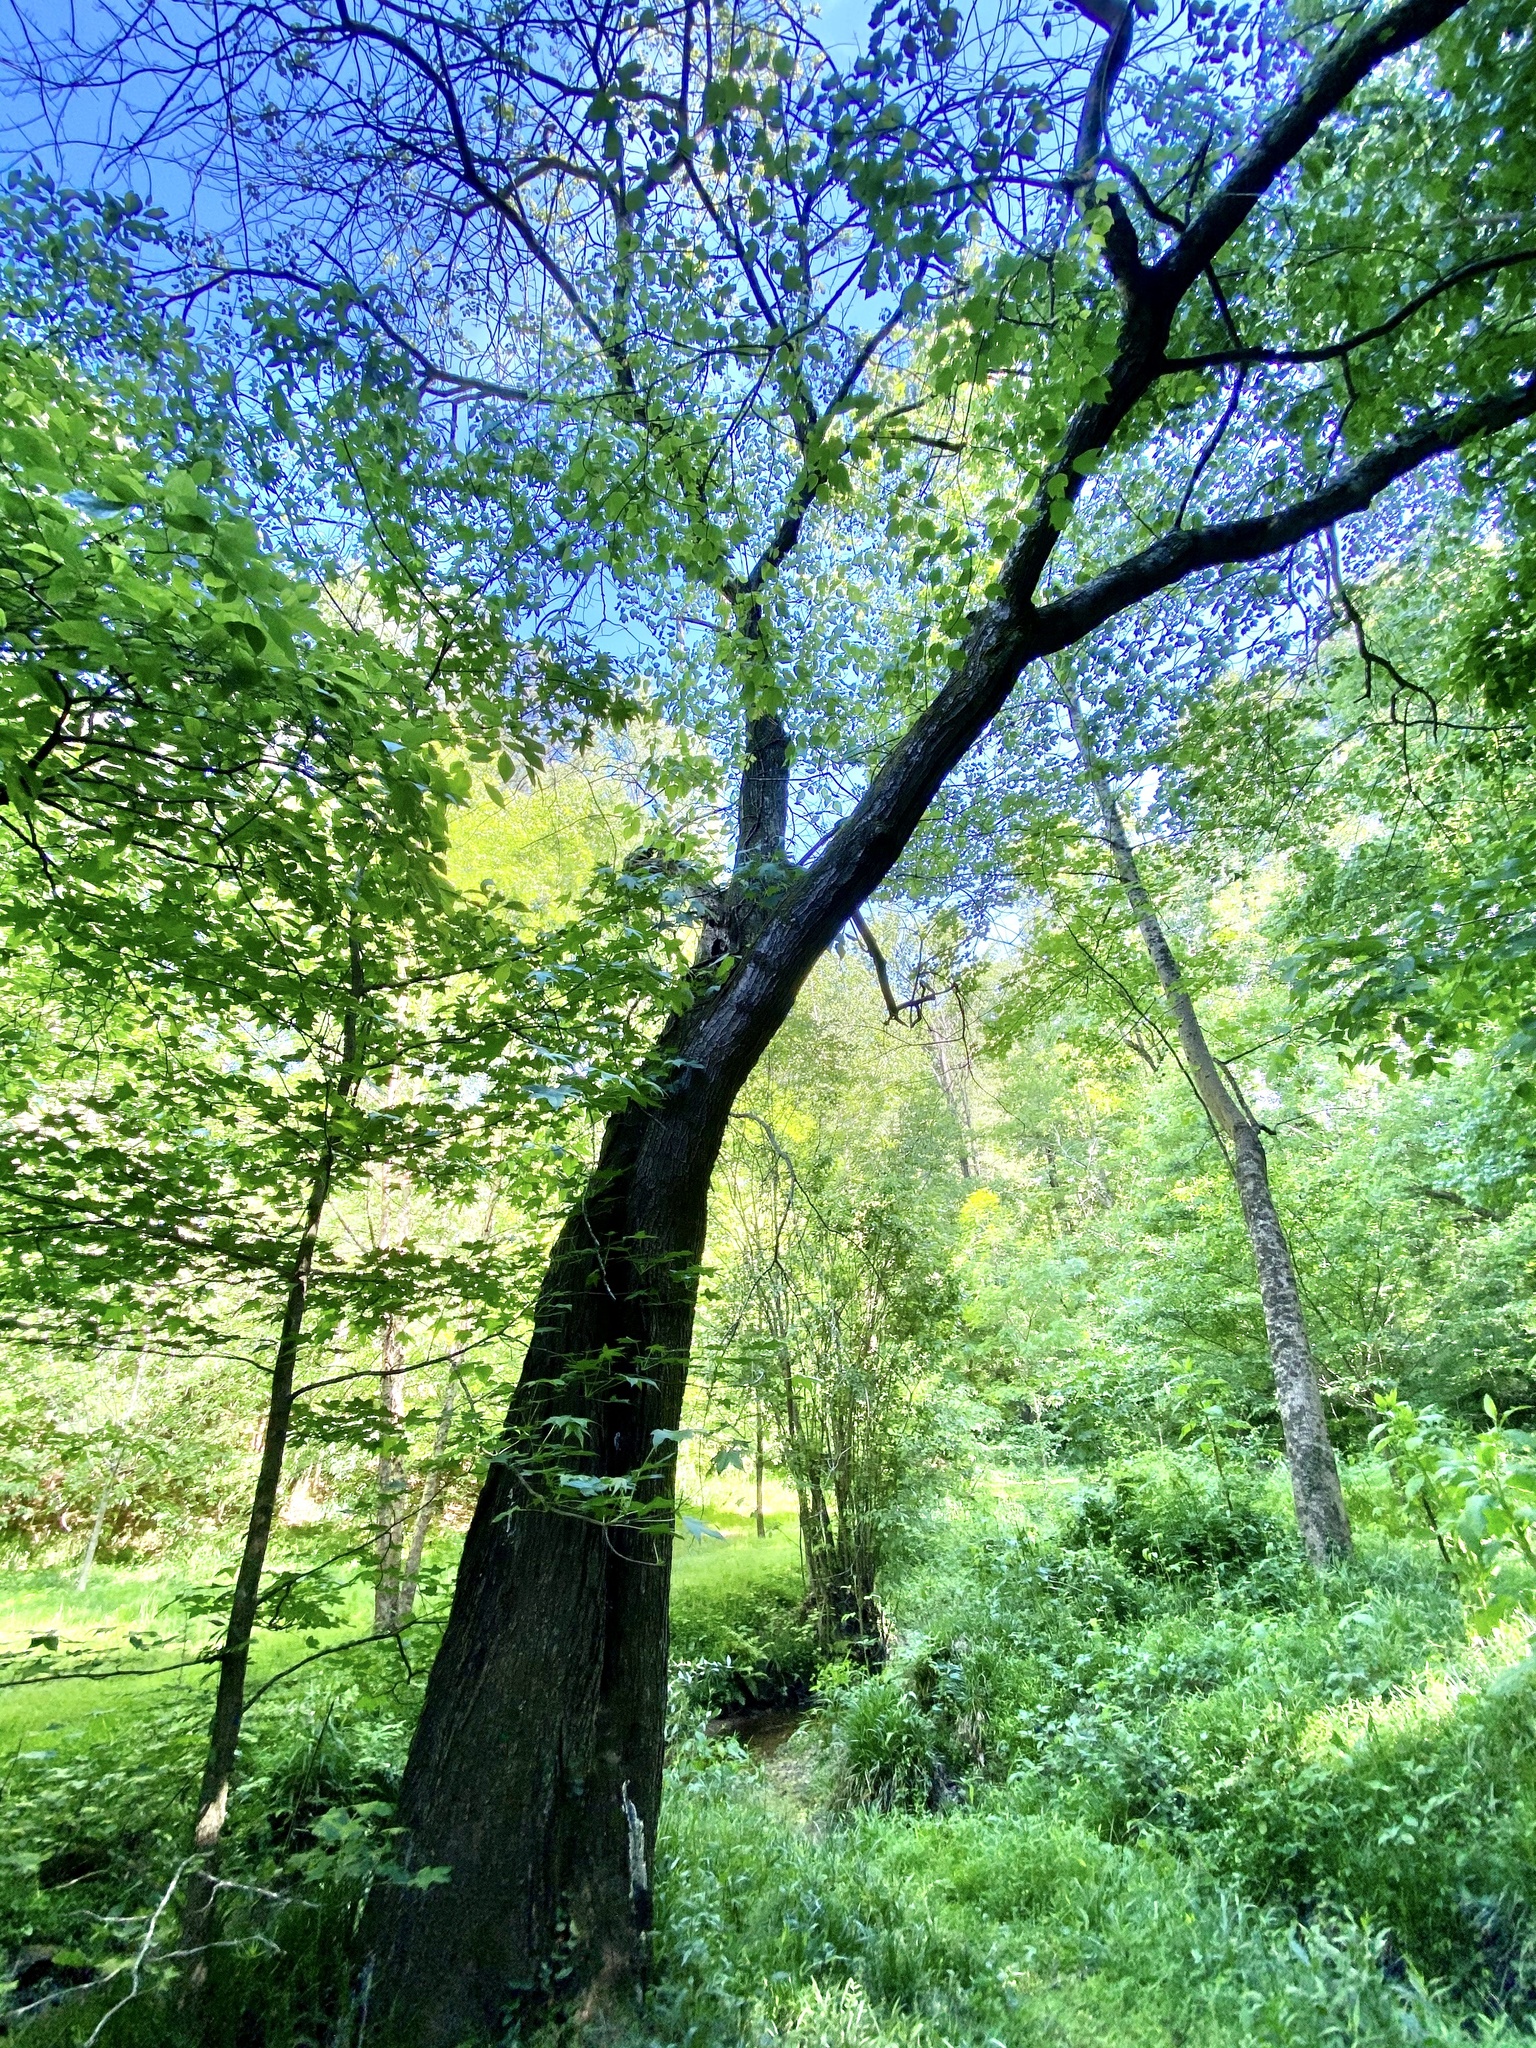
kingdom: Plantae
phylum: Tracheophyta
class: Magnoliopsida
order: Sapindales
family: Sapindaceae
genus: Acer
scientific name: Acer rubrum
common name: Red maple
